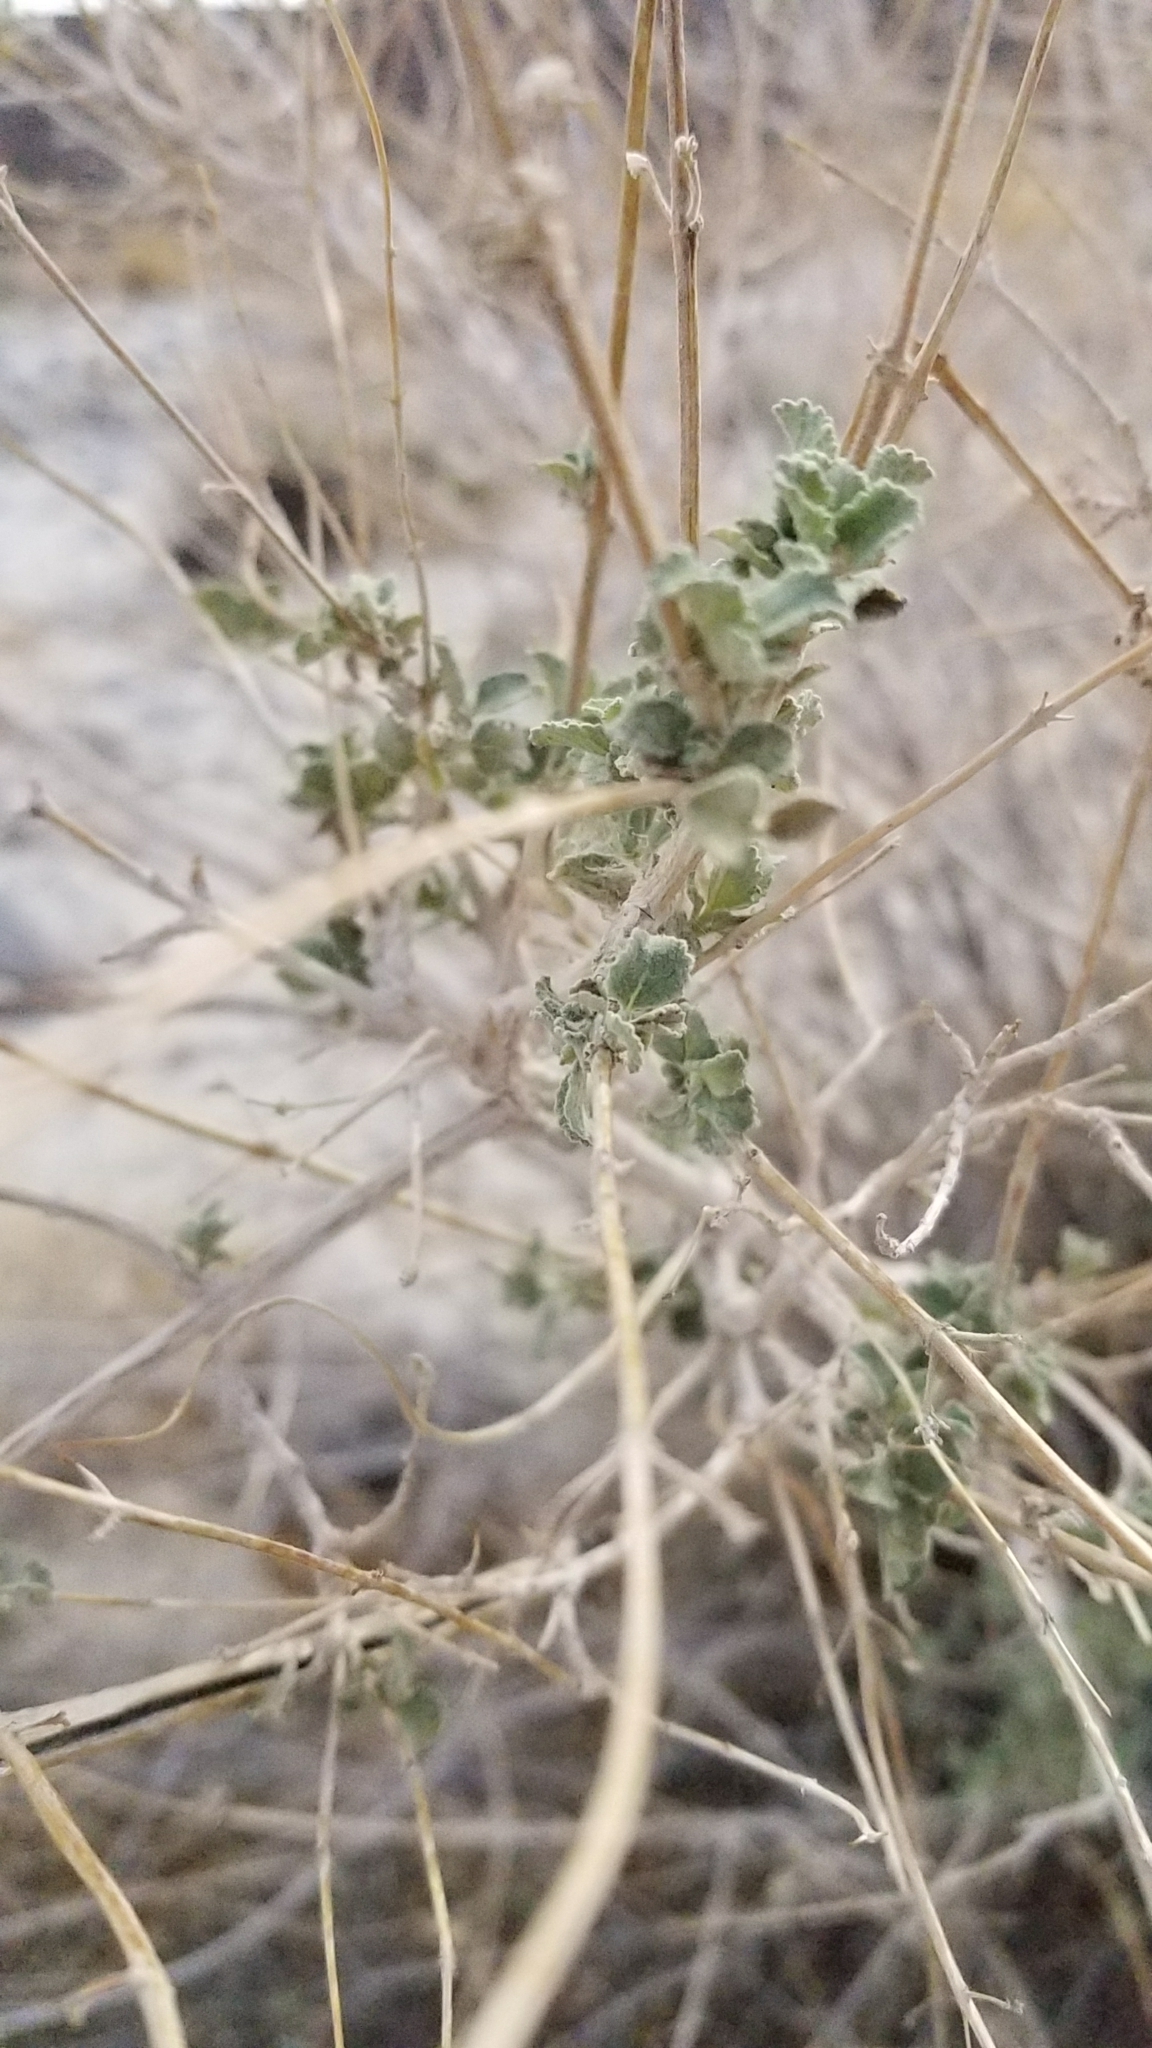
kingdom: Plantae
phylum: Tracheophyta
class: Magnoliopsida
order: Lamiales
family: Lamiaceae
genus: Condea
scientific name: Condea emoryi
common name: Chia
